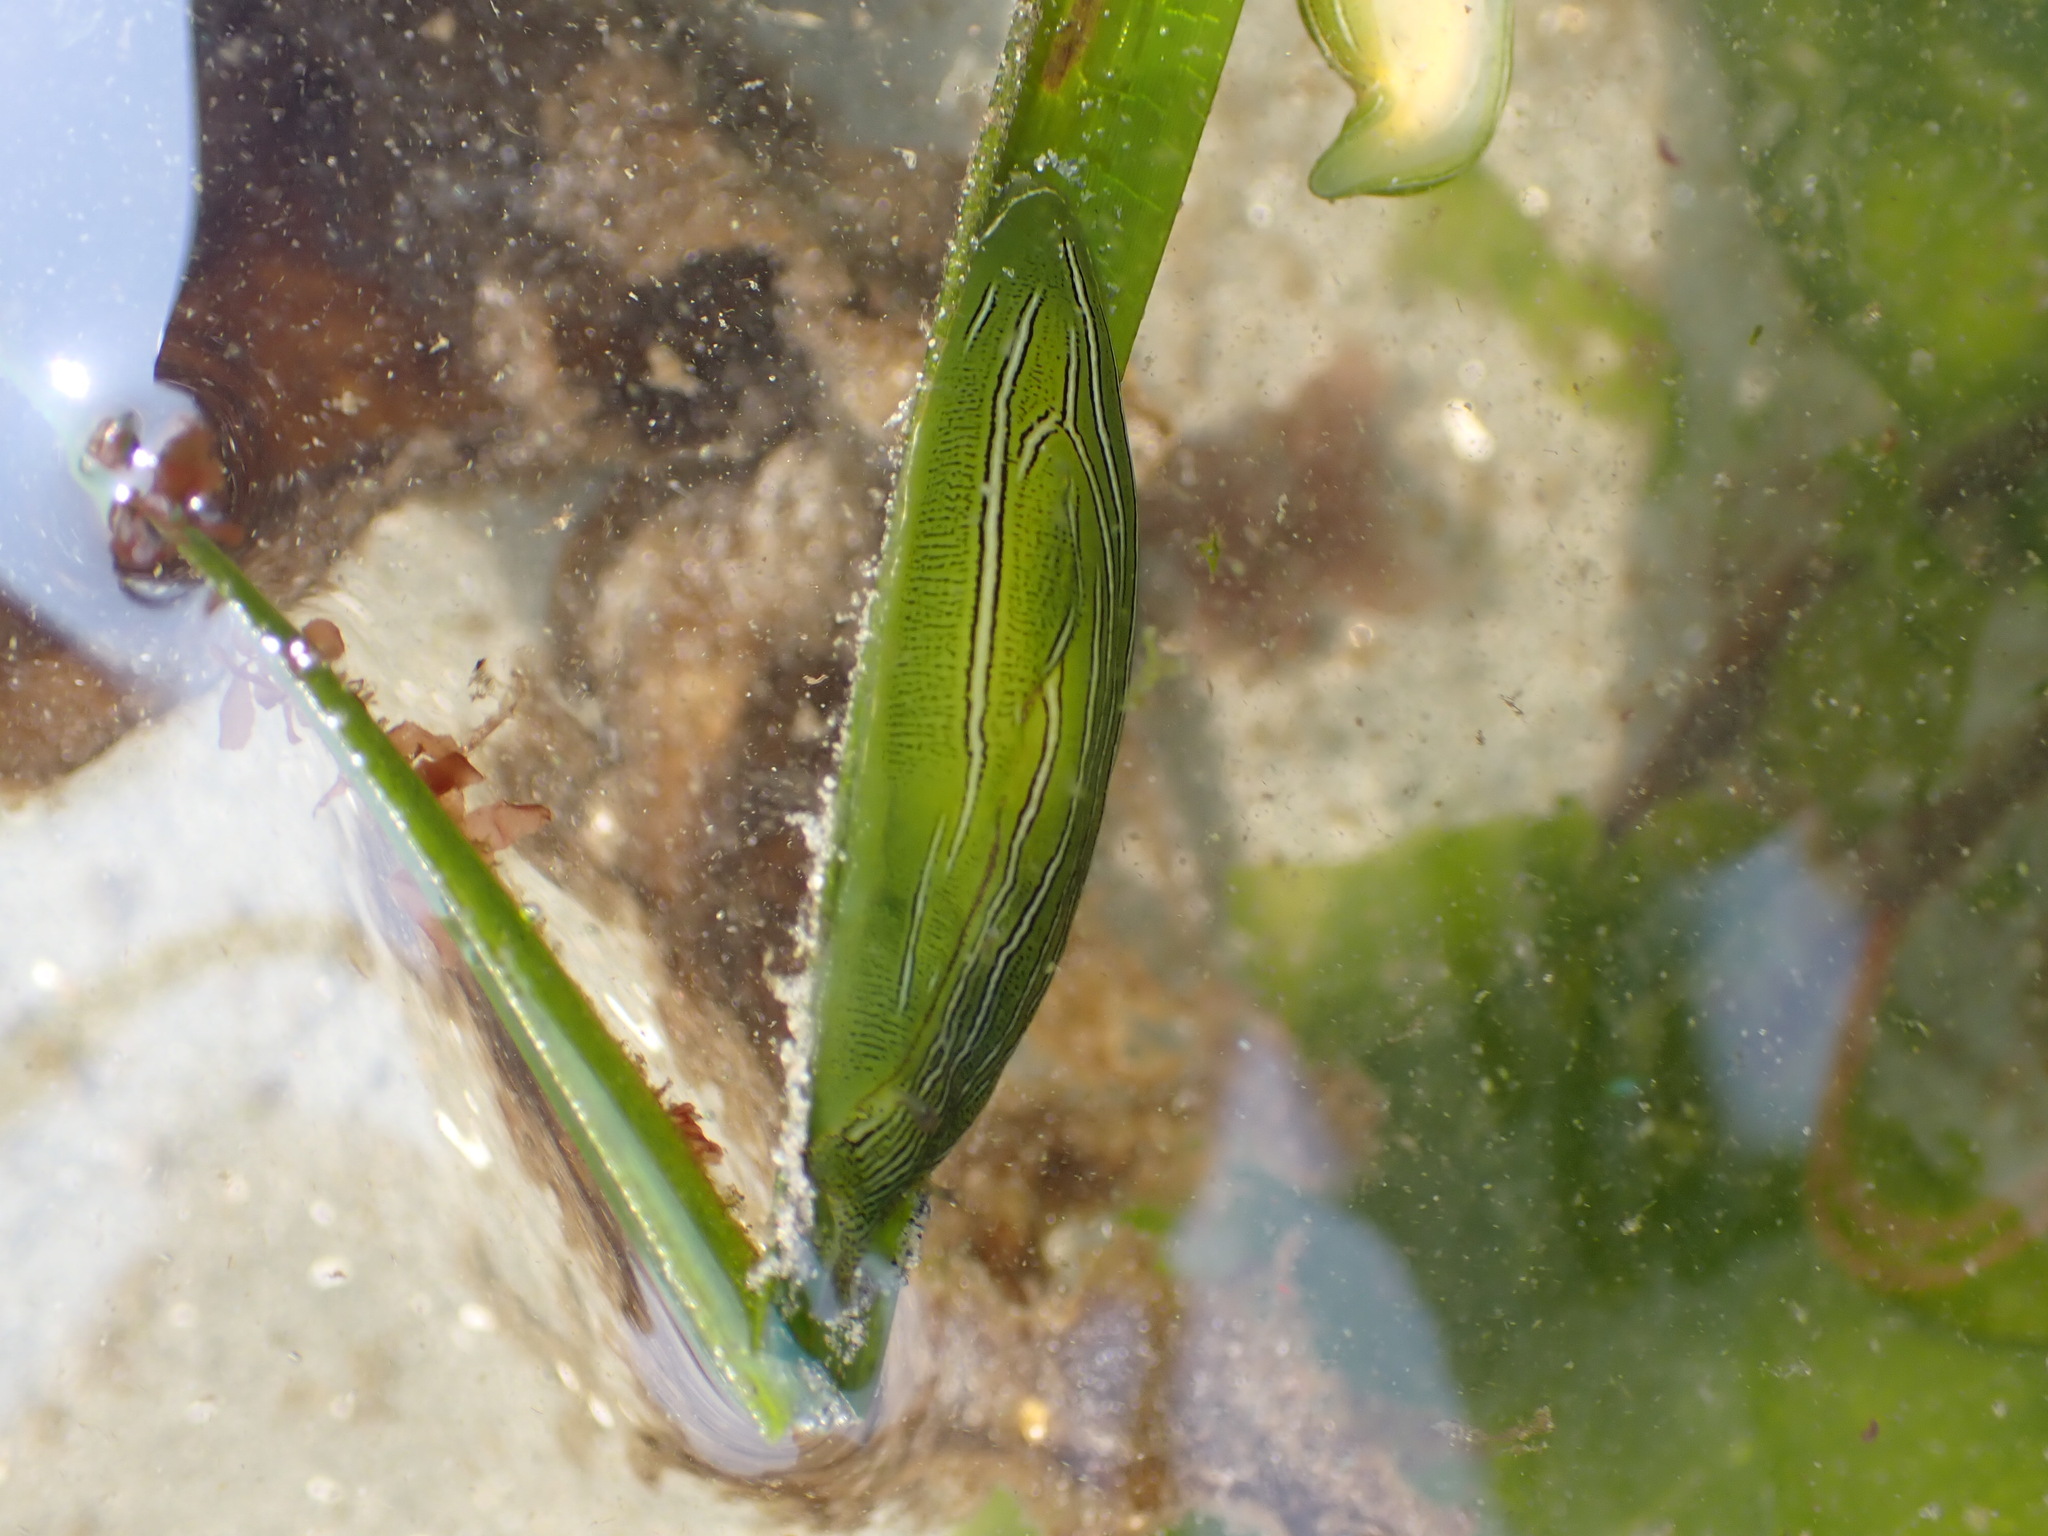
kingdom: Animalia
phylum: Mollusca
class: Gastropoda
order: Aplysiida
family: Aplysiidae
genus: Phyllaplysia
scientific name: Phyllaplysia taylori
